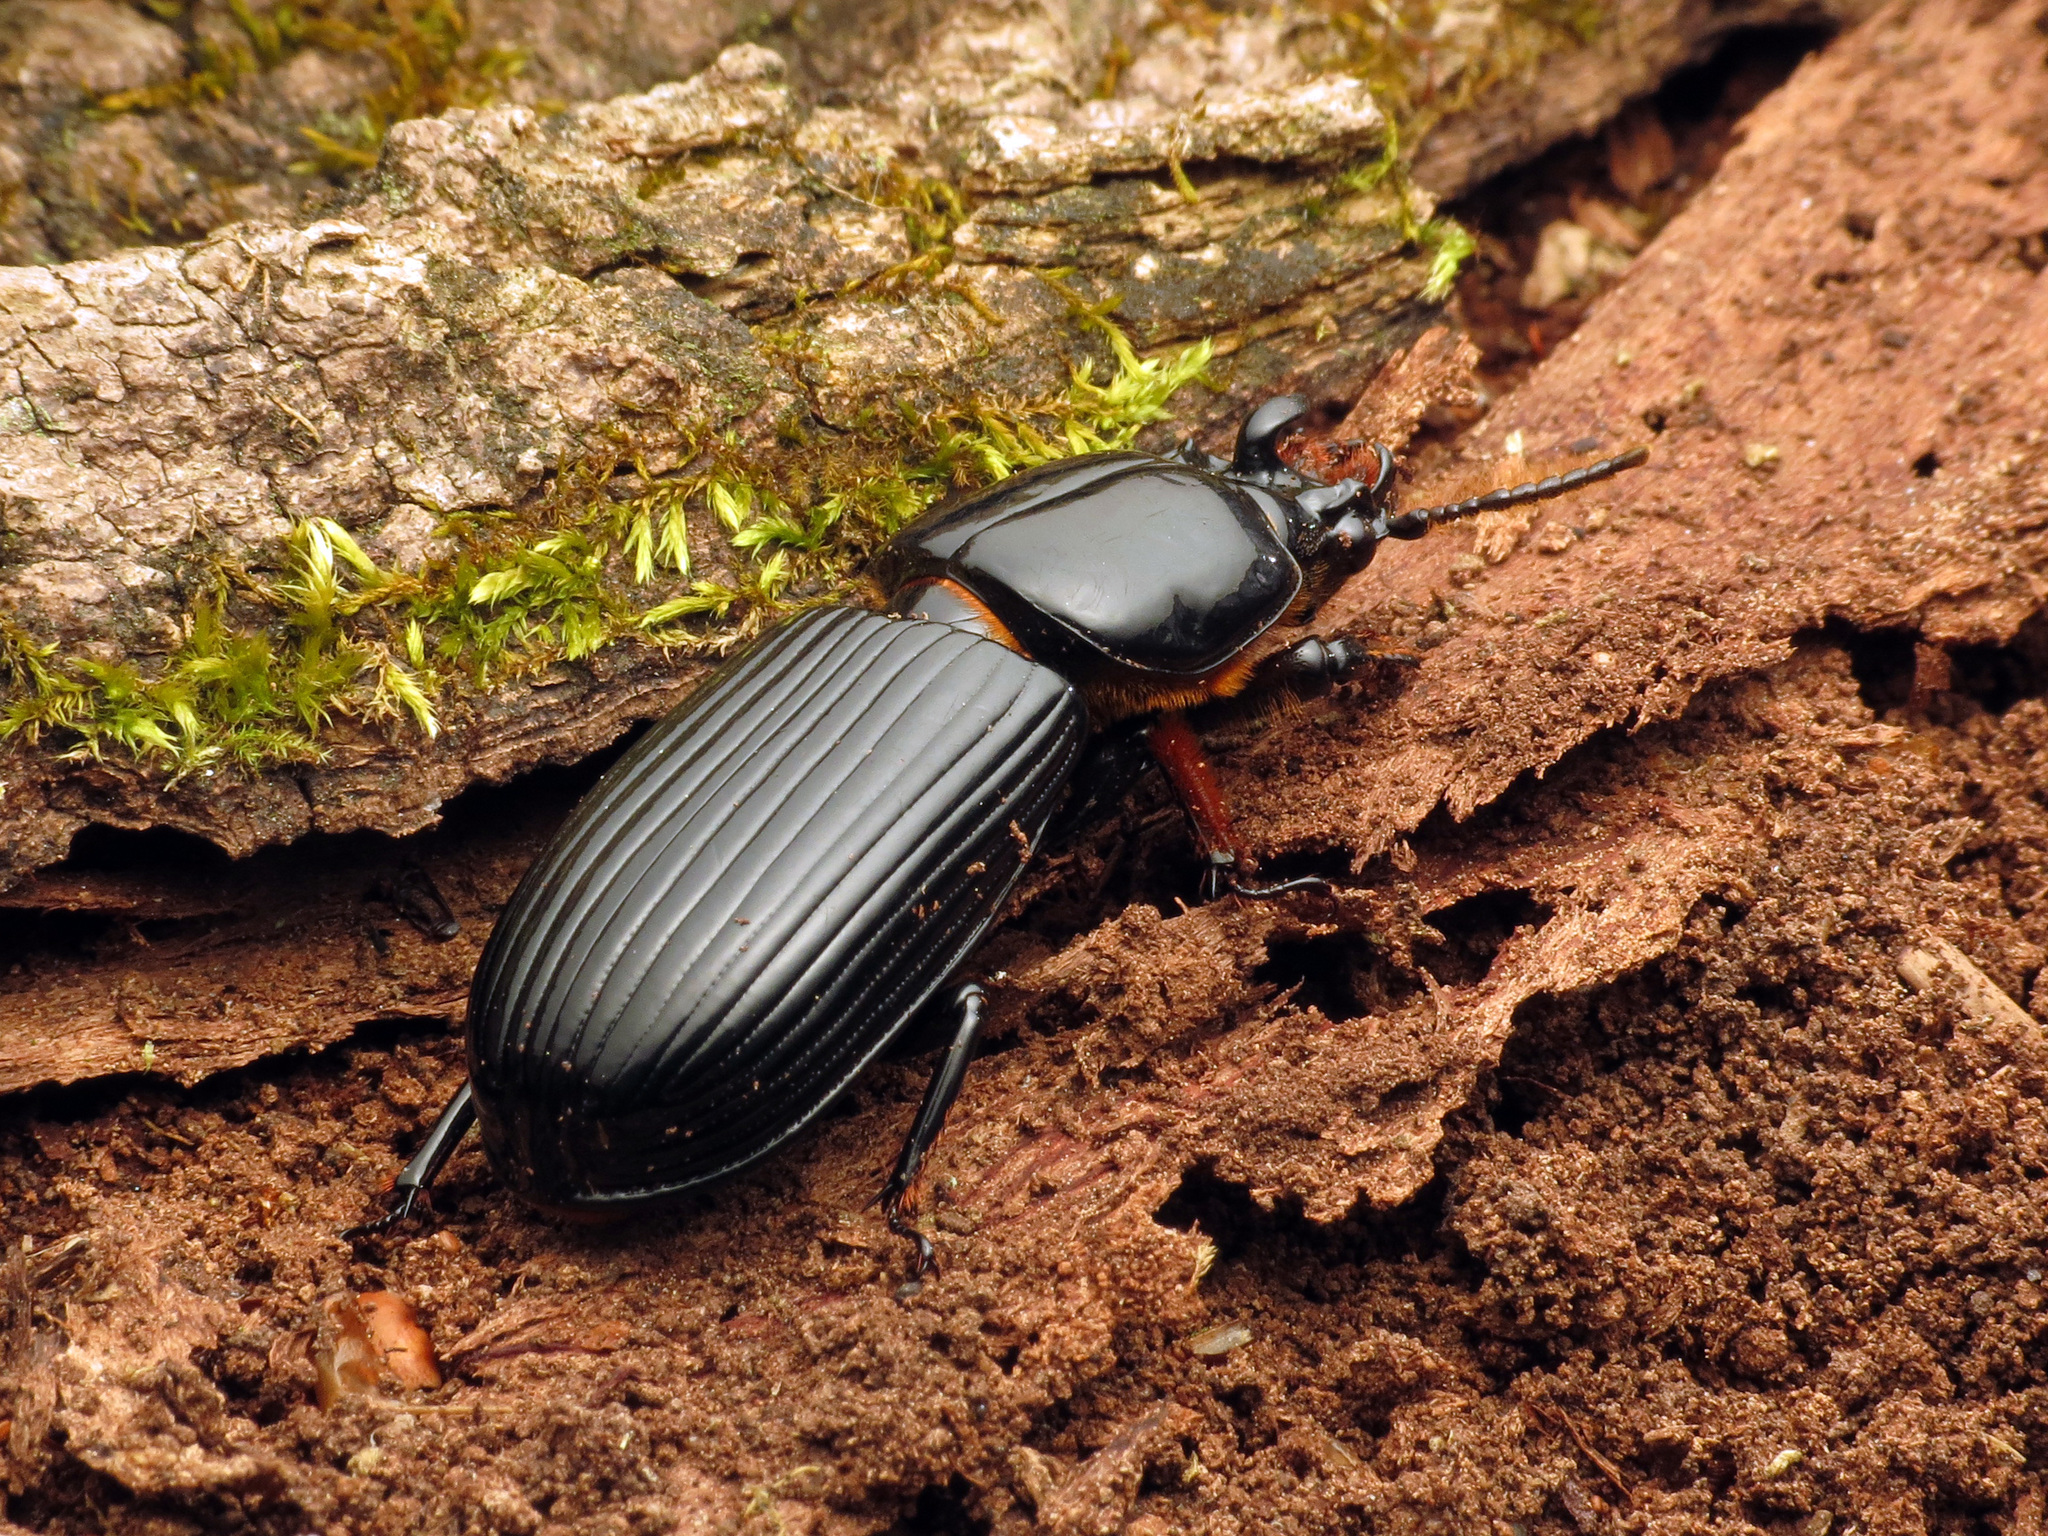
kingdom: Animalia
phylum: Arthropoda
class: Insecta
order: Coleoptera
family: Passalidae
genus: Odontotaenius
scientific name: Odontotaenius disjunctus
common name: Patent leather beetle
